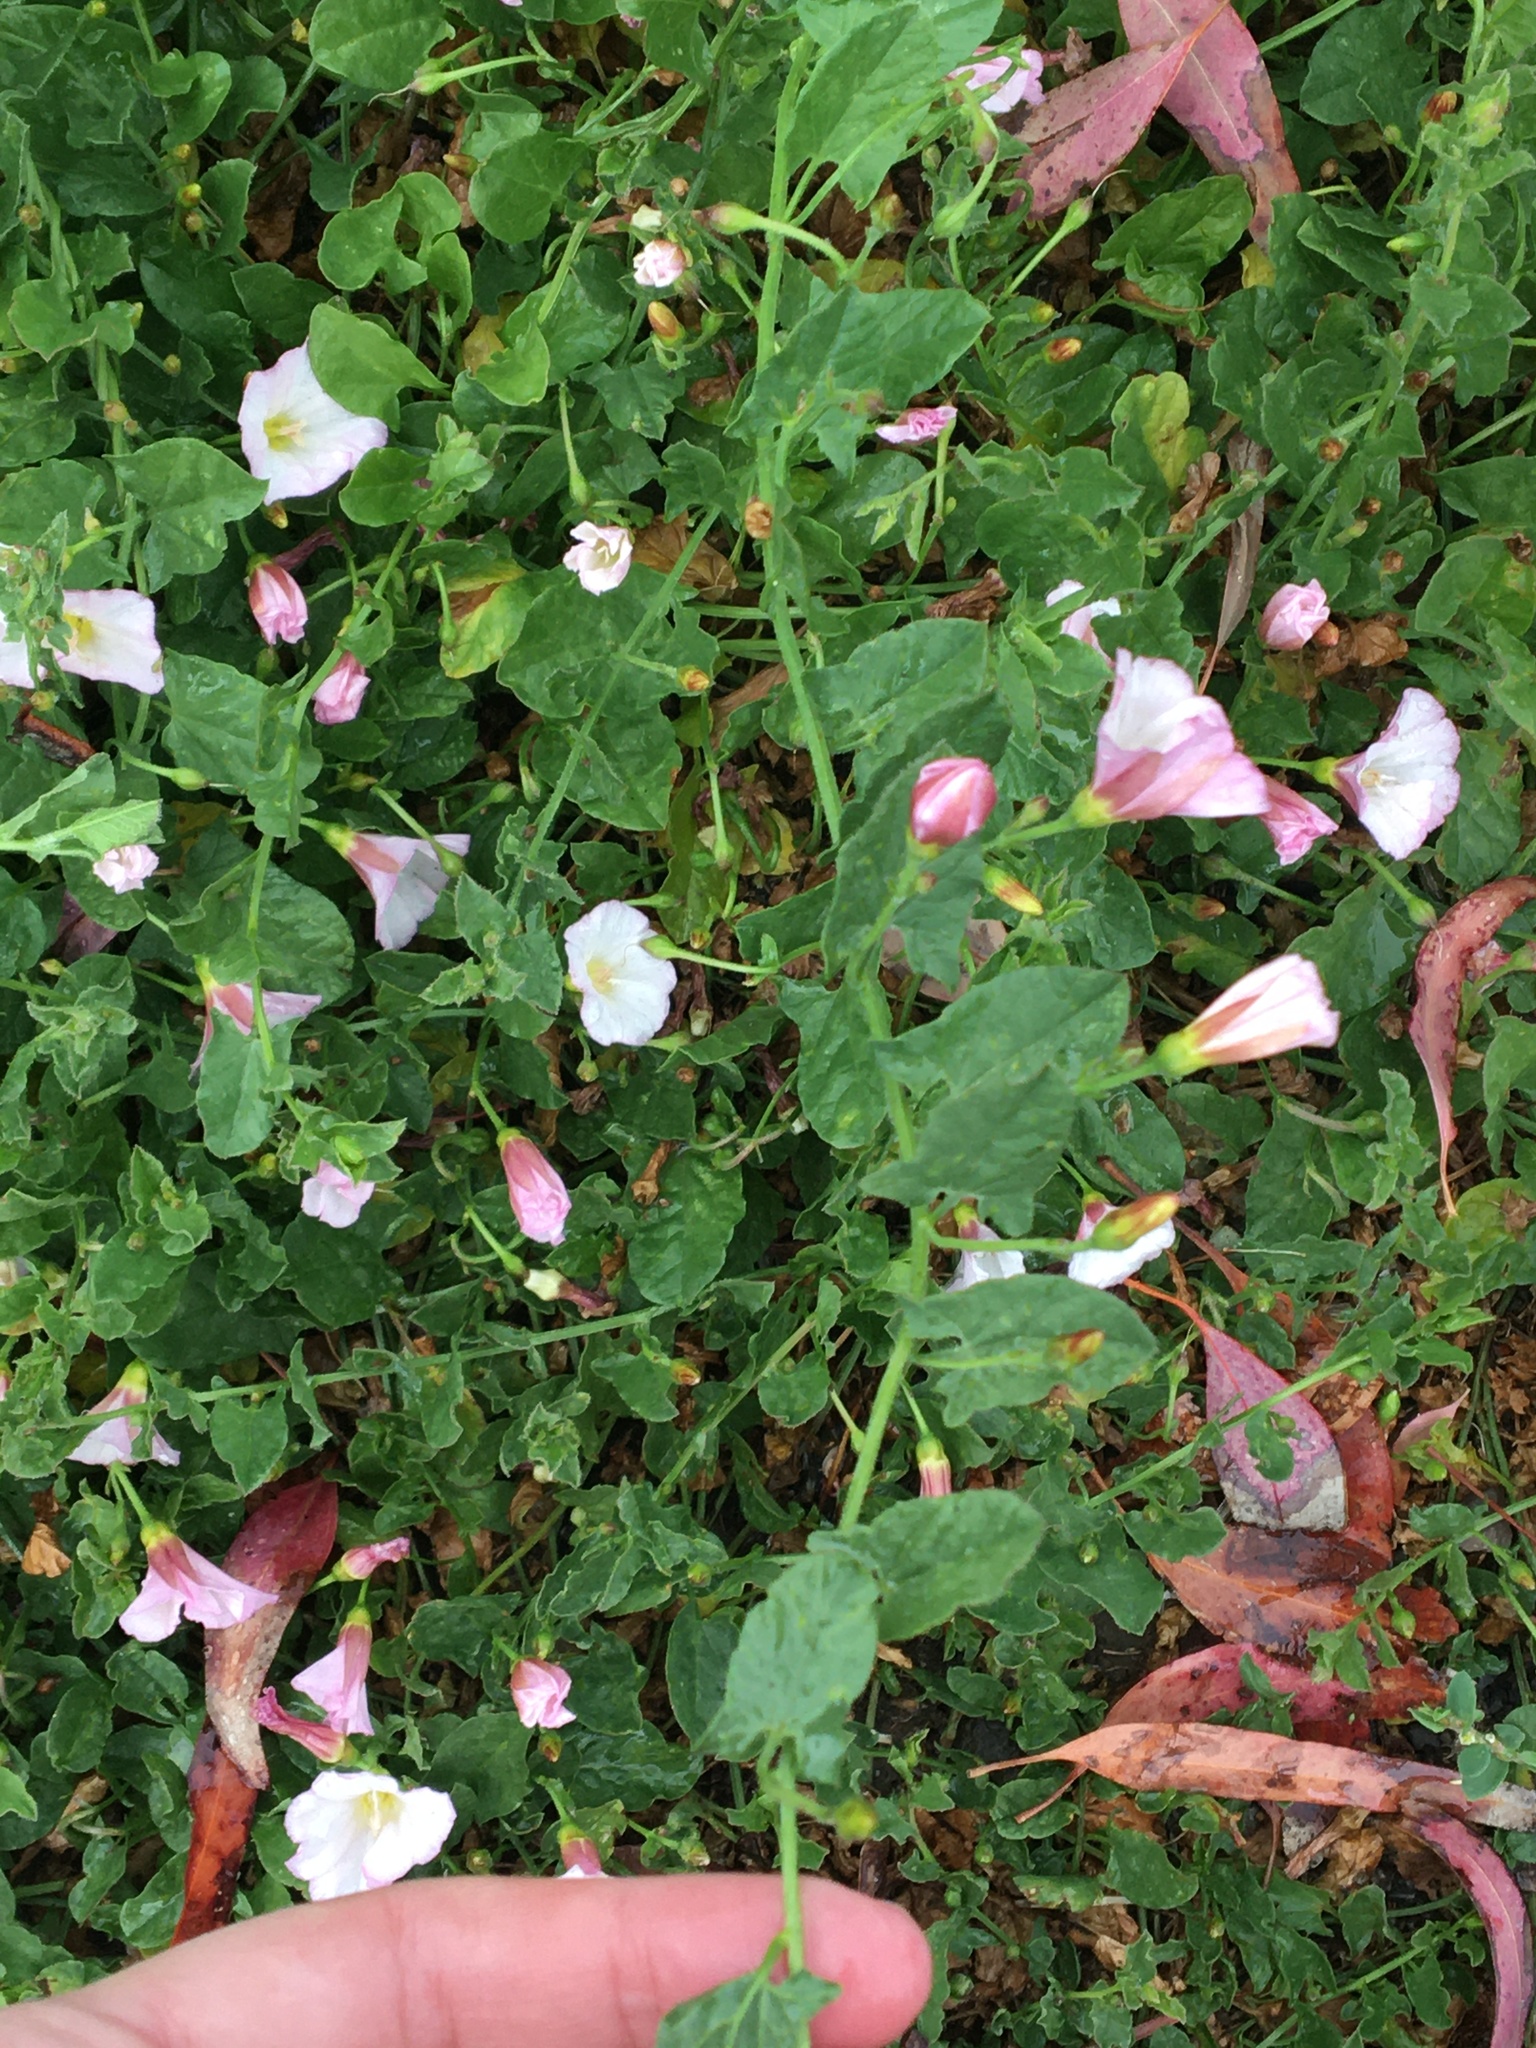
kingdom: Plantae
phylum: Tracheophyta
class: Magnoliopsida
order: Solanales
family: Convolvulaceae
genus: Convolvulus
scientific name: Convolvulus arvensis
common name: Field bindweed
